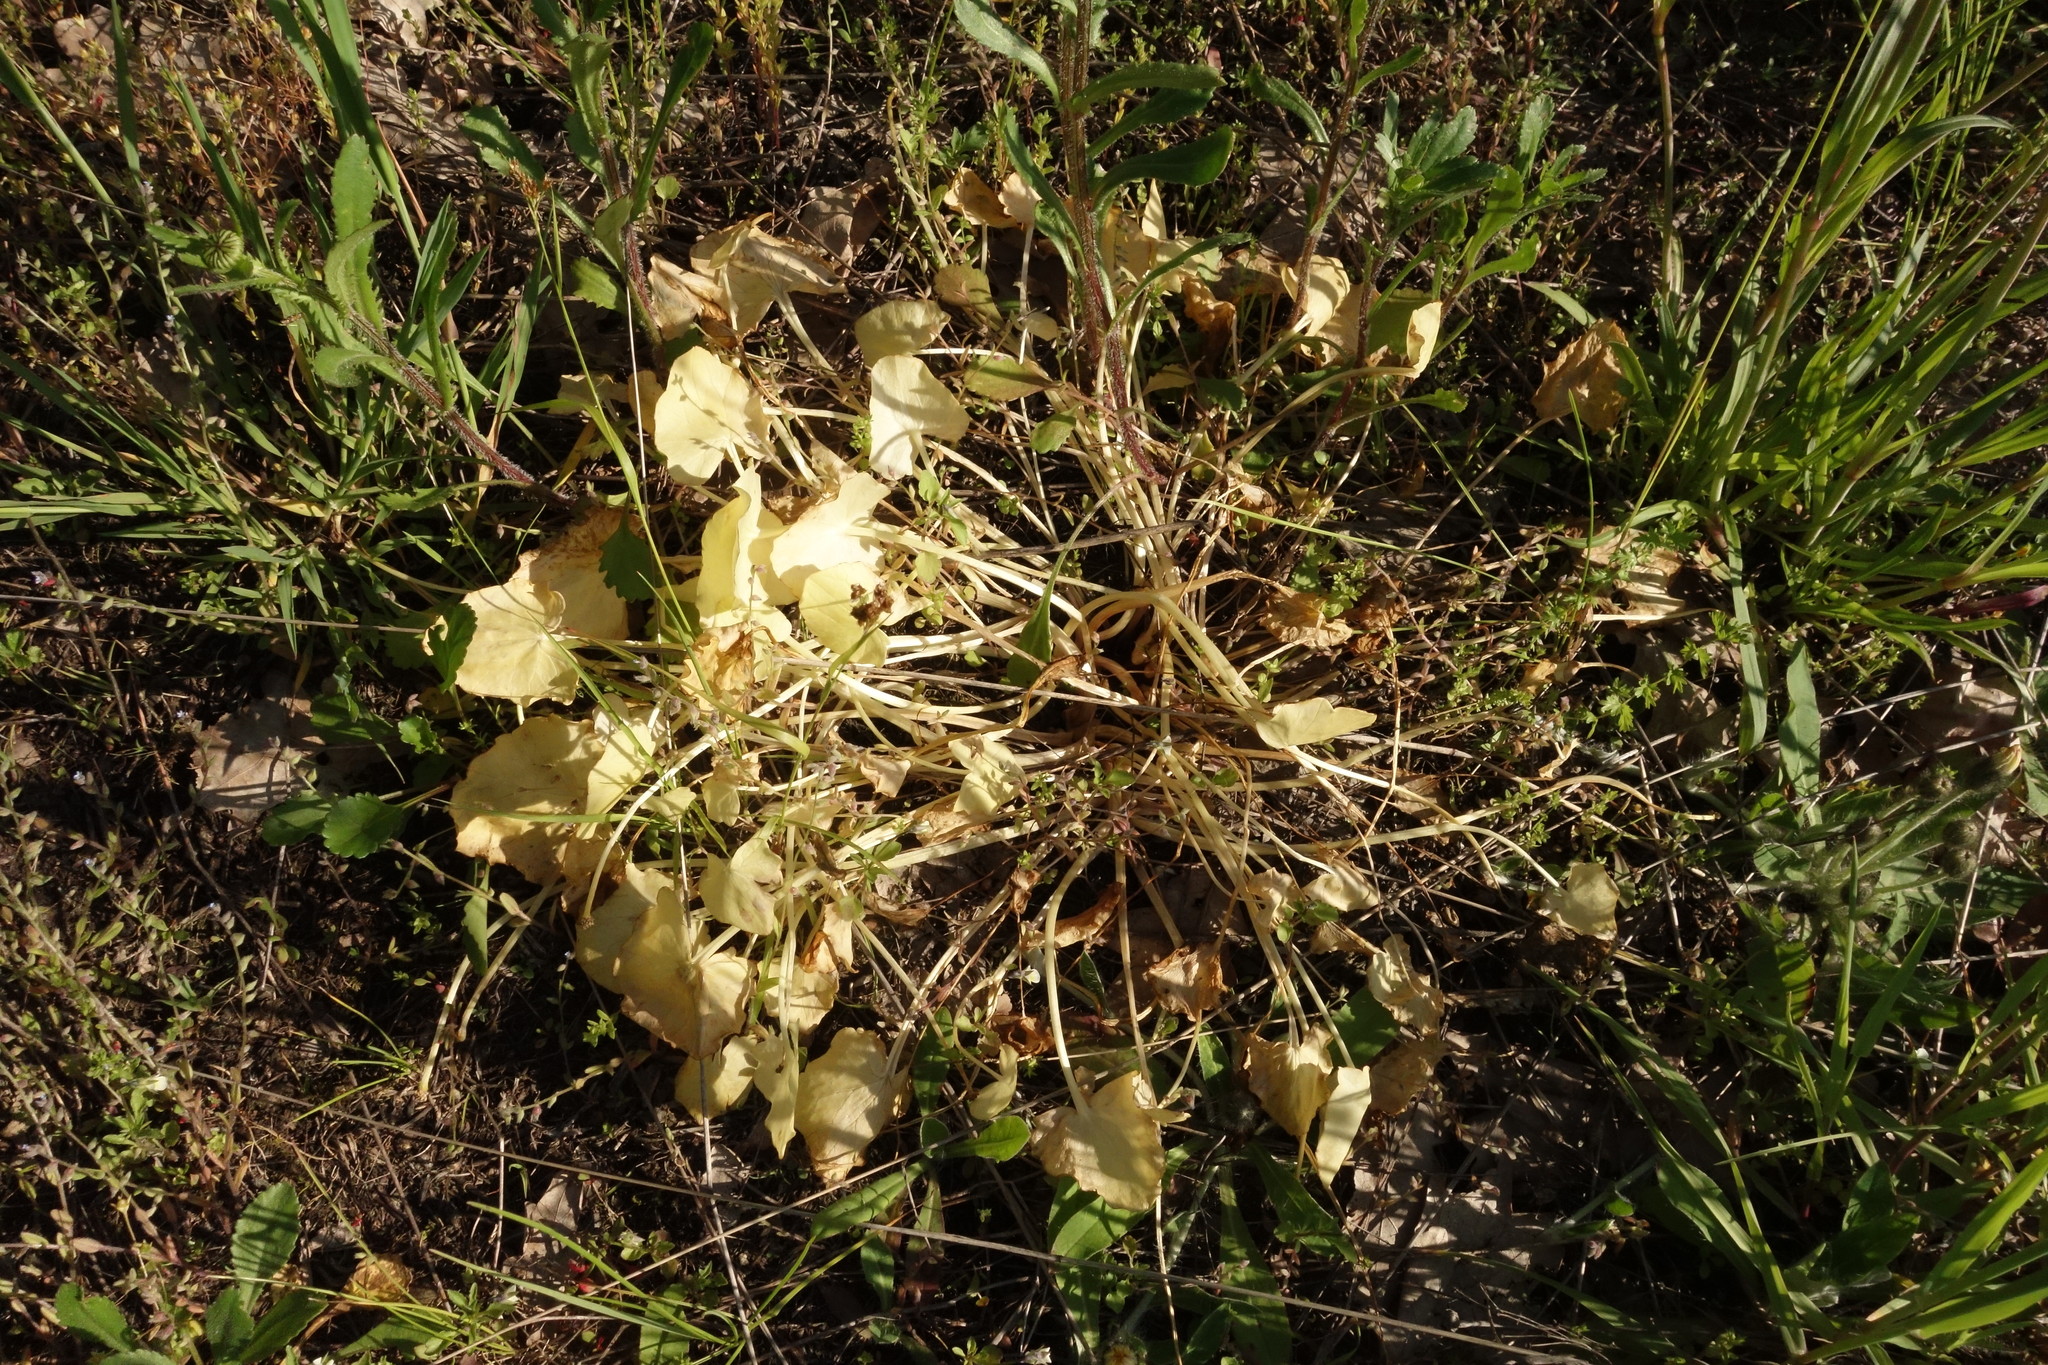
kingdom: Plantae
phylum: Tracheophyta
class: Magnoliopsida
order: Ranunculales
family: Ranunculaceae
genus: Ficaria
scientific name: Ficaria verna
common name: Lesser celandine
